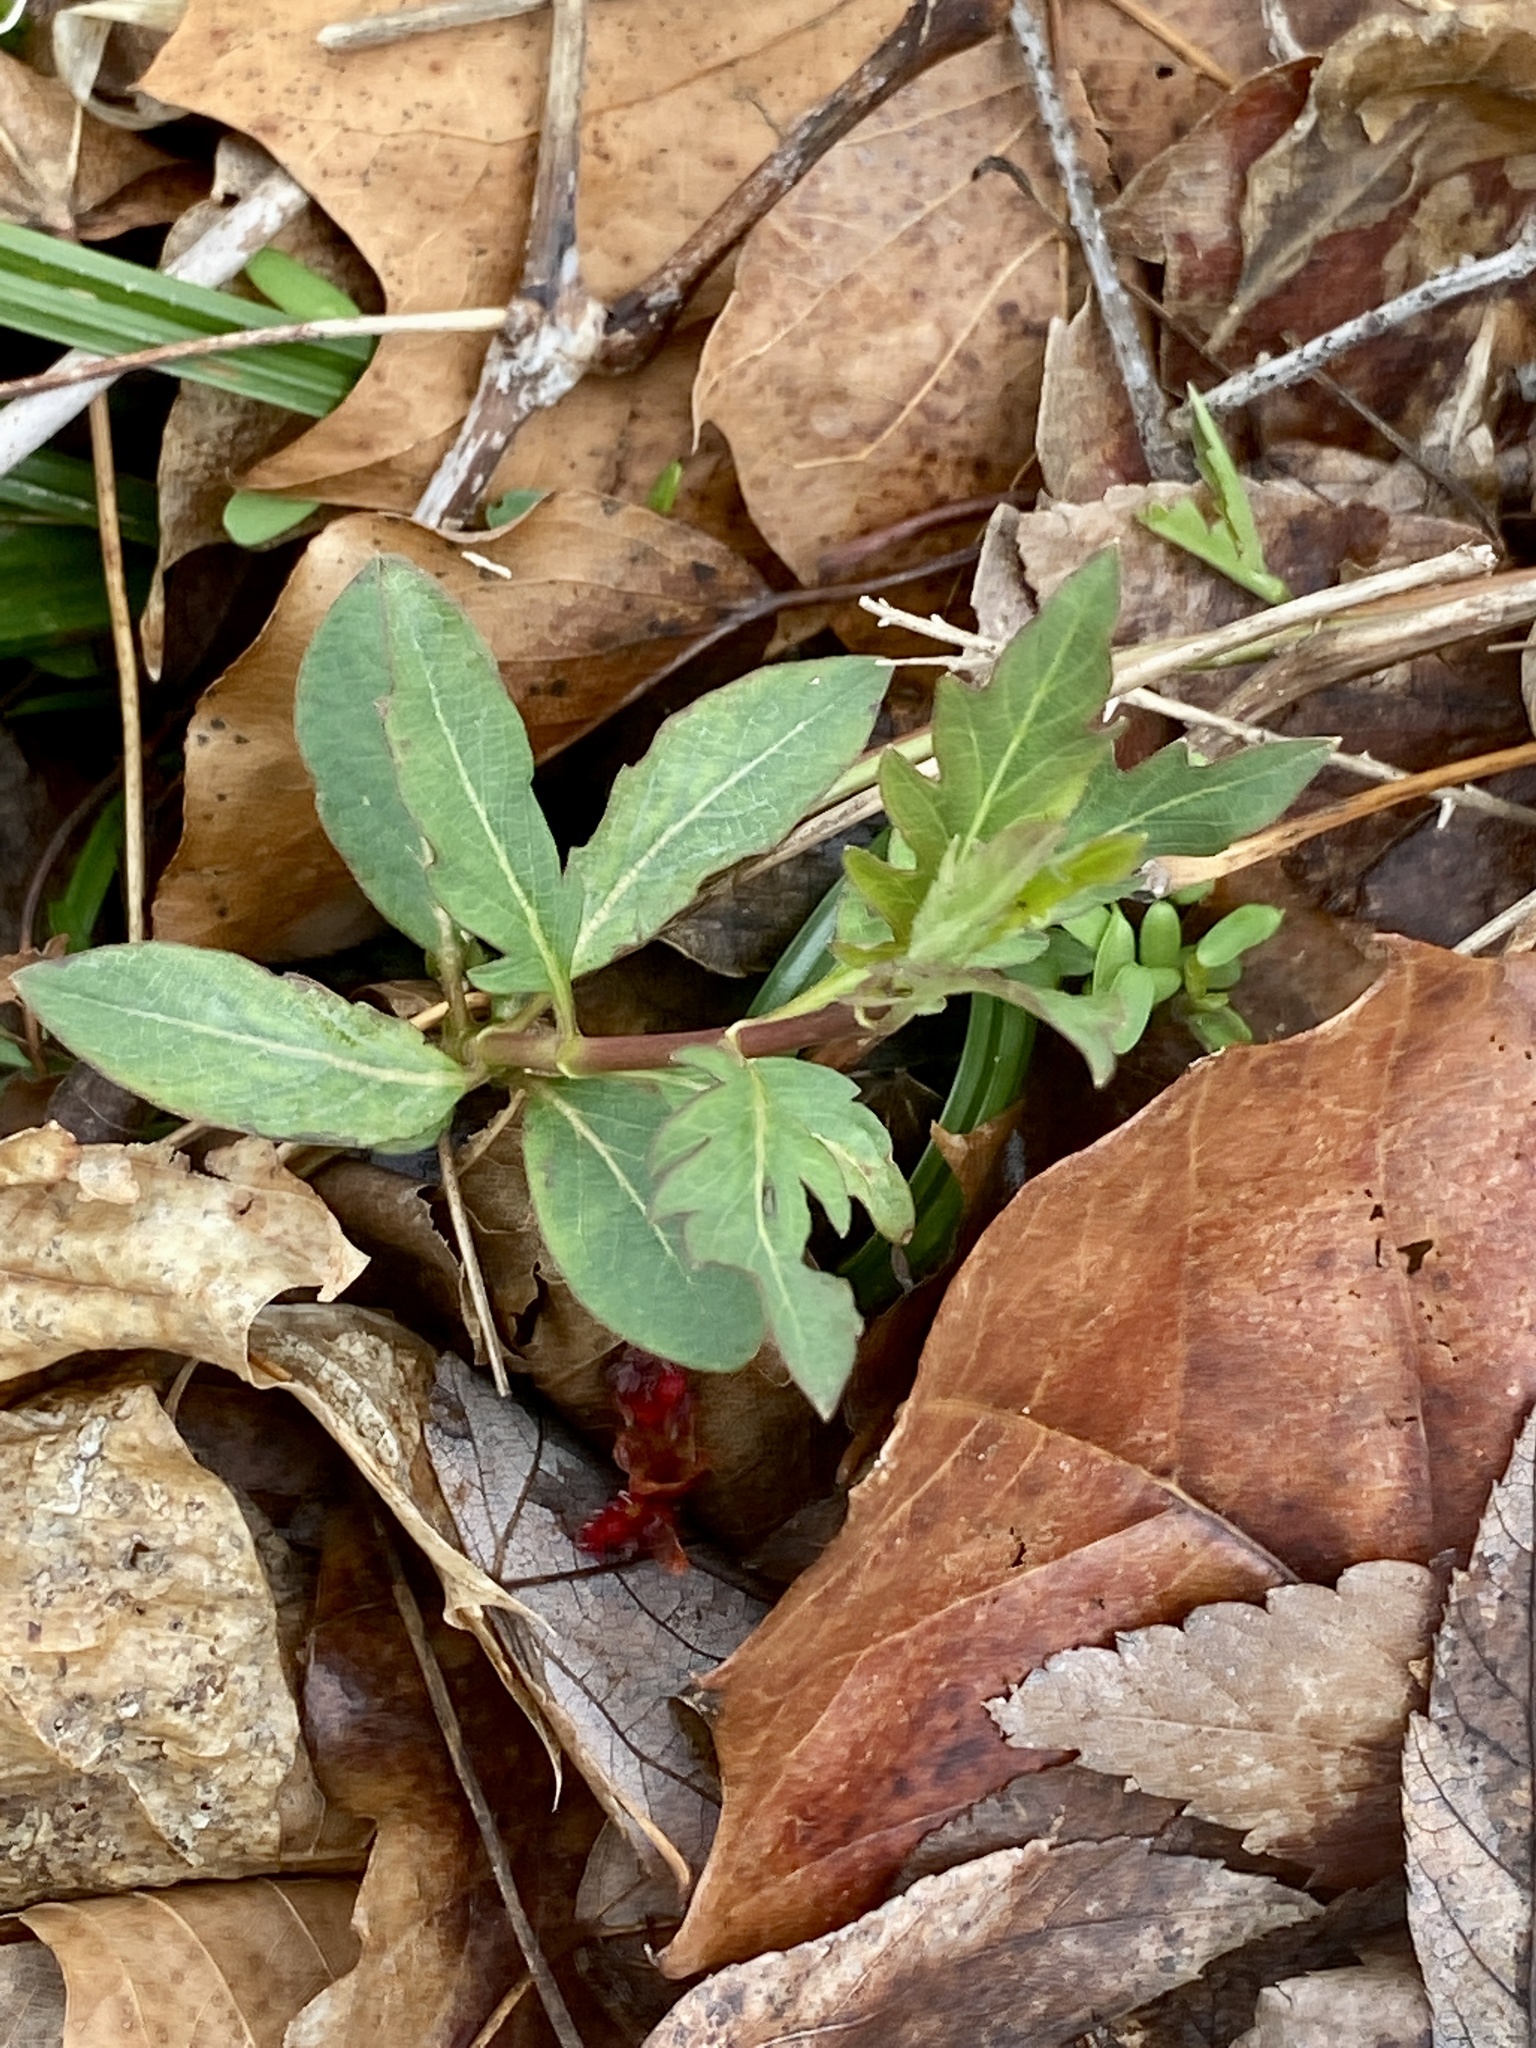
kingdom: Plantae
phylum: Tracheophyta
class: Magnoliopsida
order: Dipsacales
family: Caprifoliaceae
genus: Lonicera
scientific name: Lonicera japonica
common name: Japanese honeysuckle
